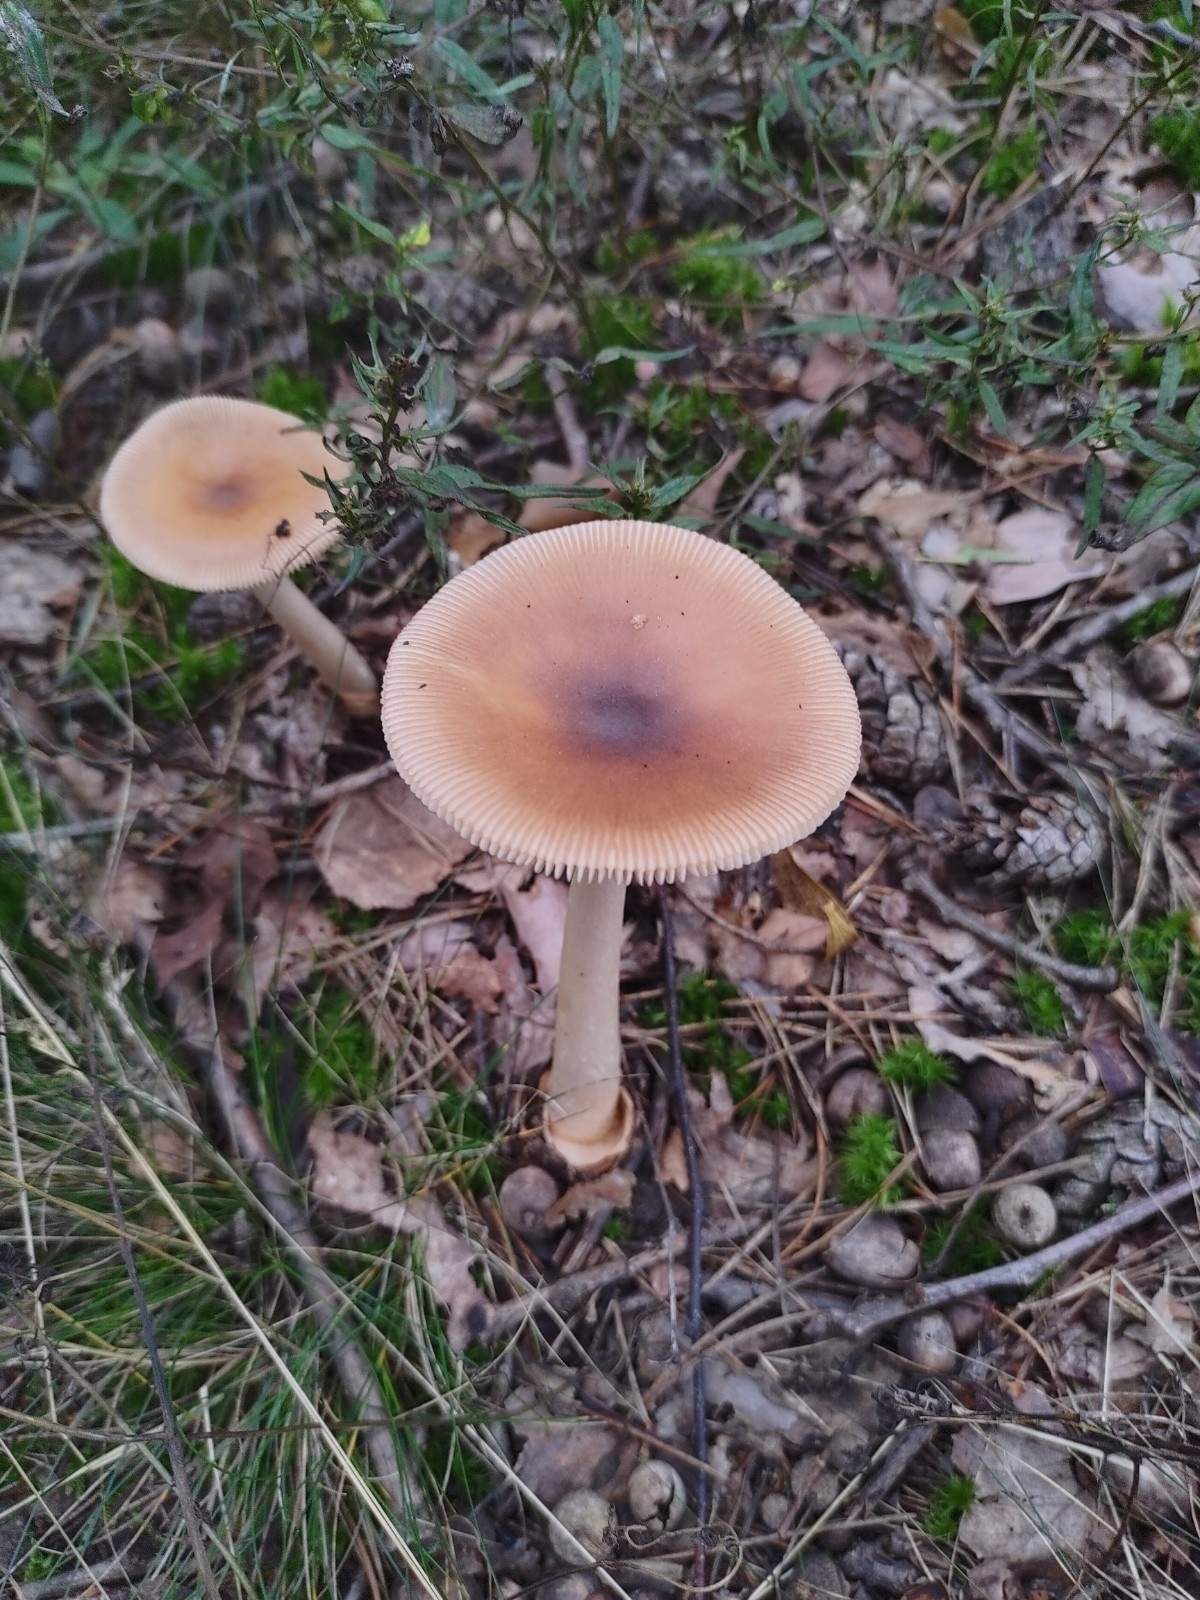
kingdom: Fungi
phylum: Basidiomycota
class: Agaricomycetes
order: Agaricales
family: Amanitaceae
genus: Amanita
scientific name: Amanita fulva
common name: Tawny grisette
